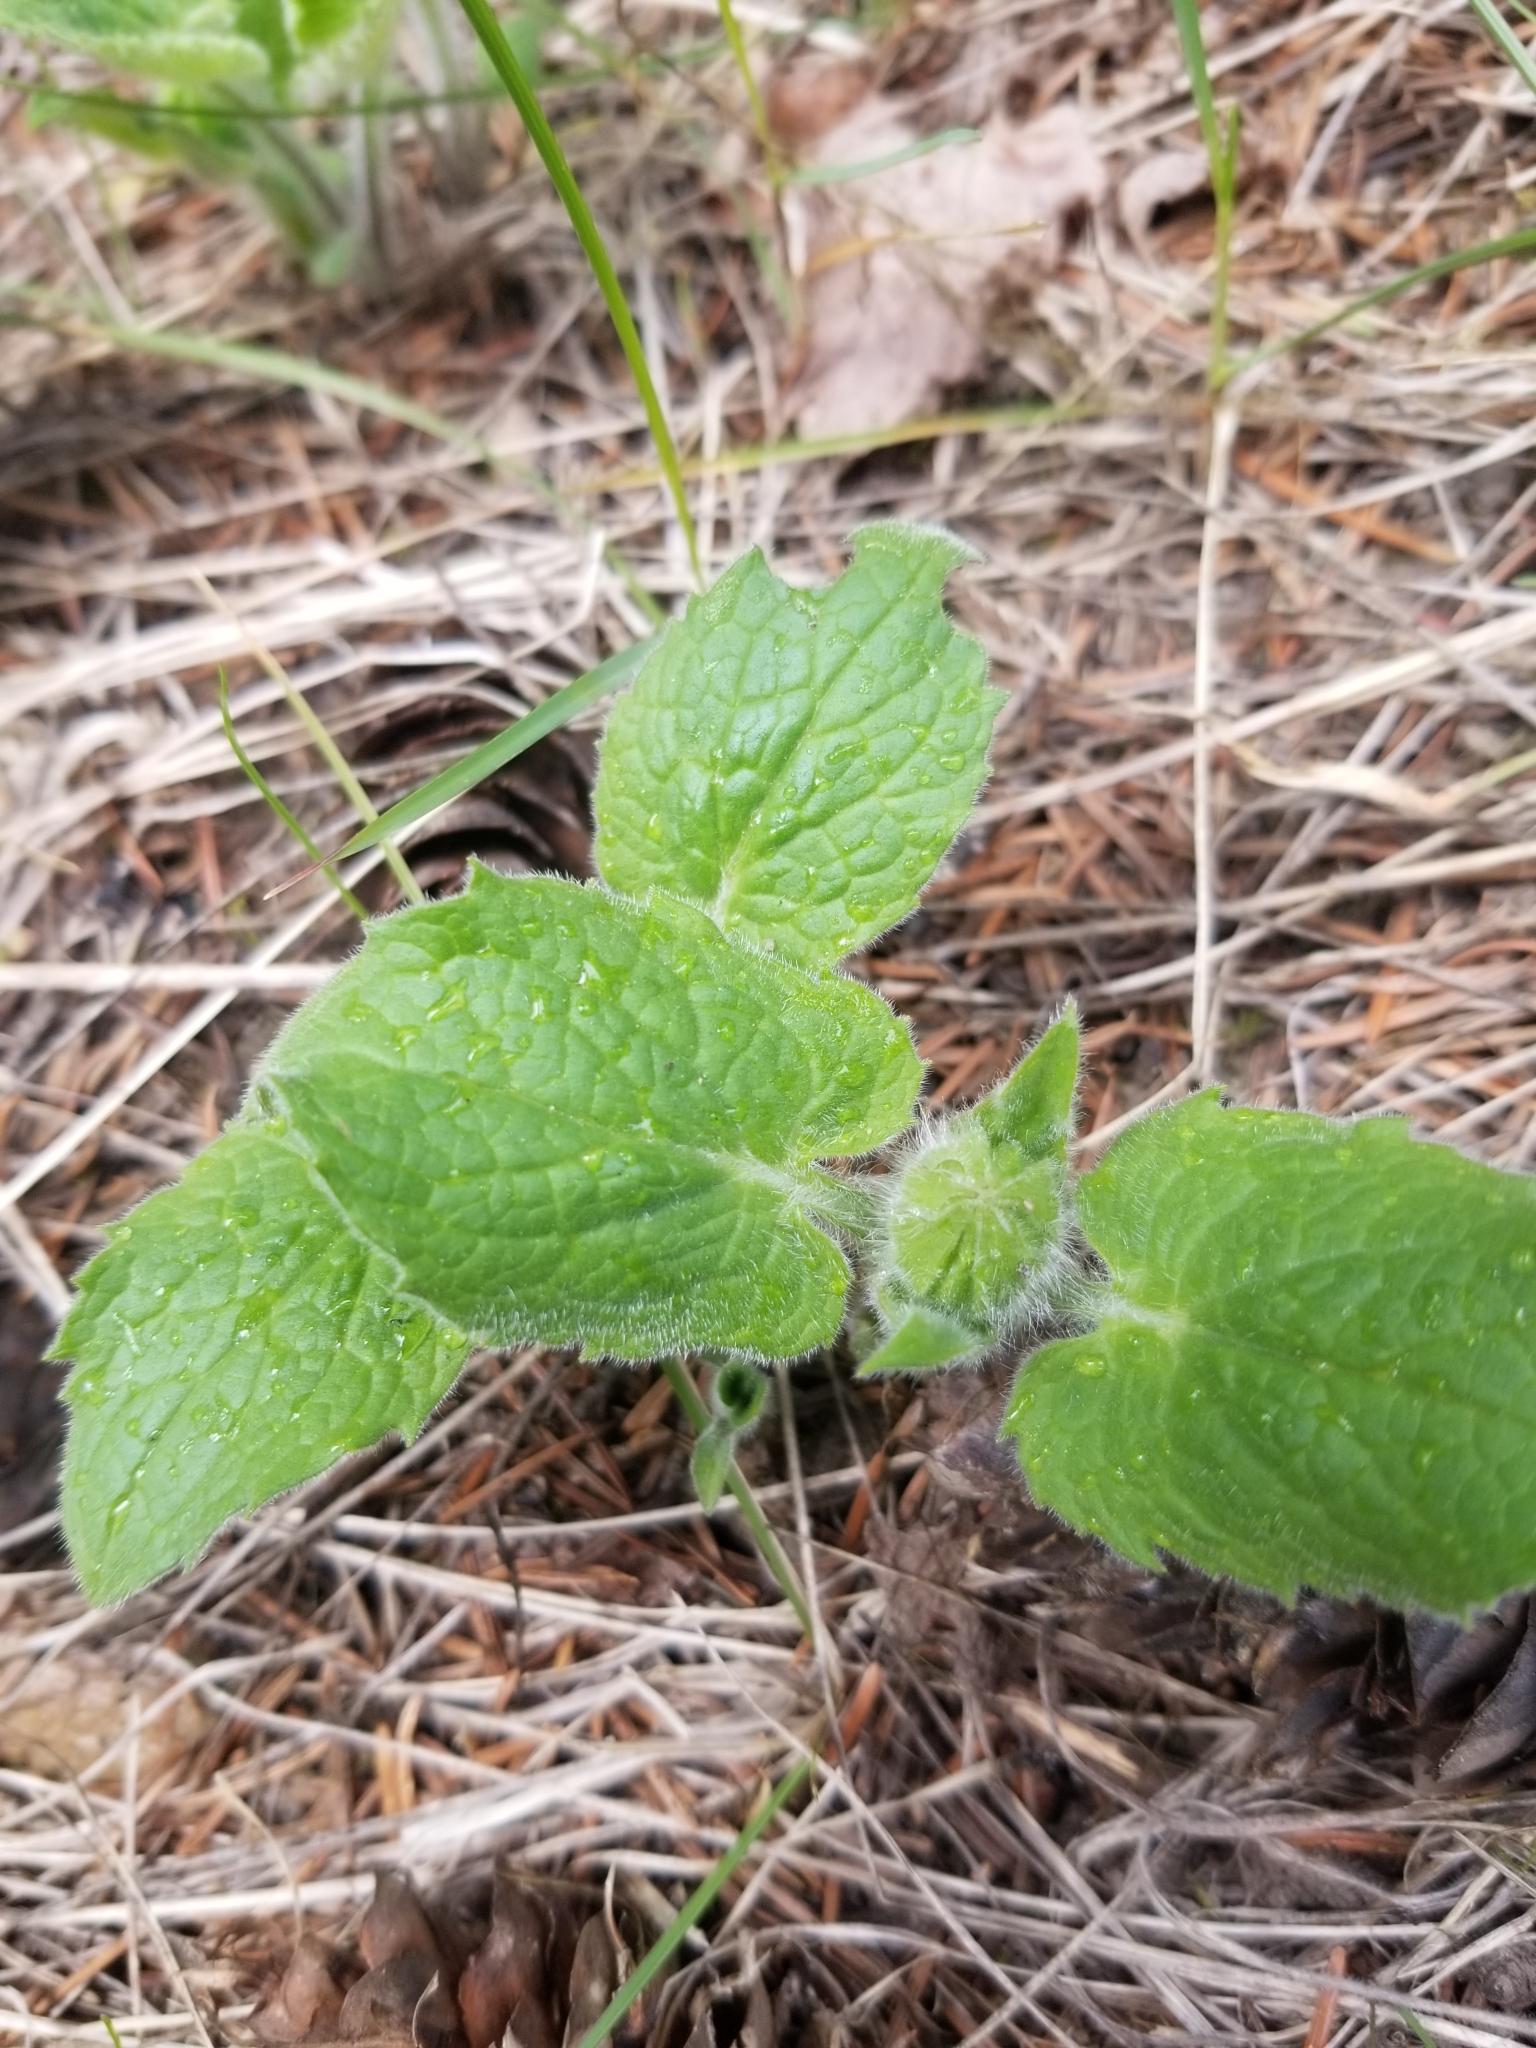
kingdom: Plantae
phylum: Tracheophyta
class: Magnoliopsida
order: Asterales
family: Asteraceae
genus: Arnica
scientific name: Arnica cordifolia
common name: Heart-leaf arnica
